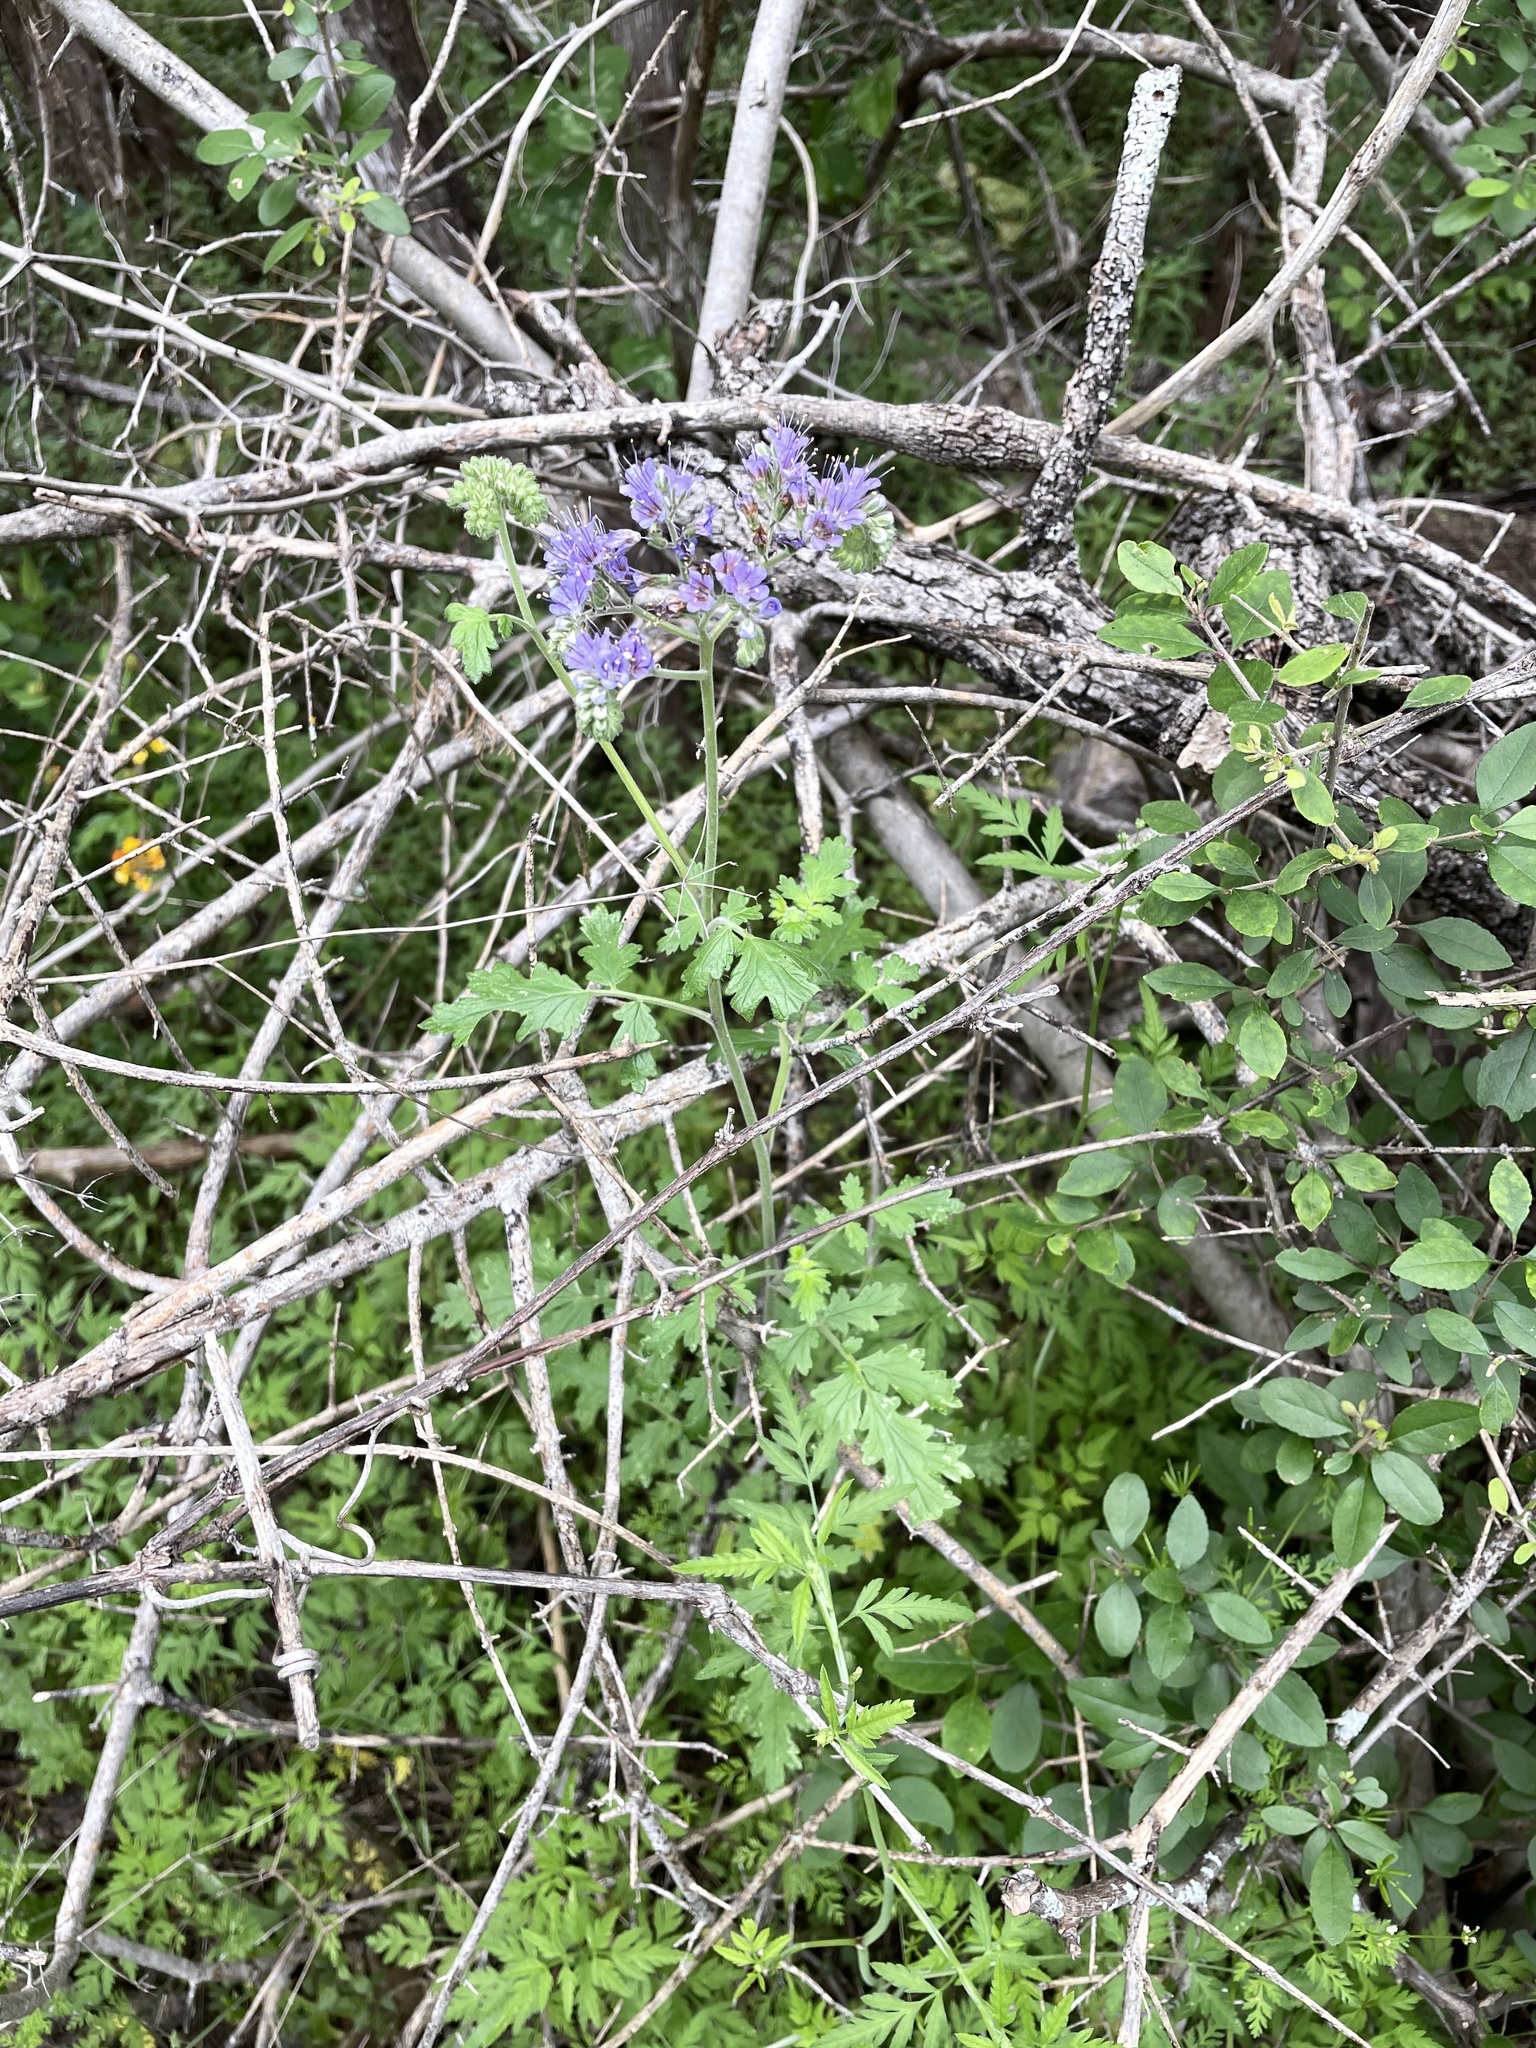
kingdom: Plantae
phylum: Tracheophyta
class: Magnoliopsida
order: Boraginales
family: Hydrophyllaceae
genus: Phacelia
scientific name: Phacelia congesta
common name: Blue curls
